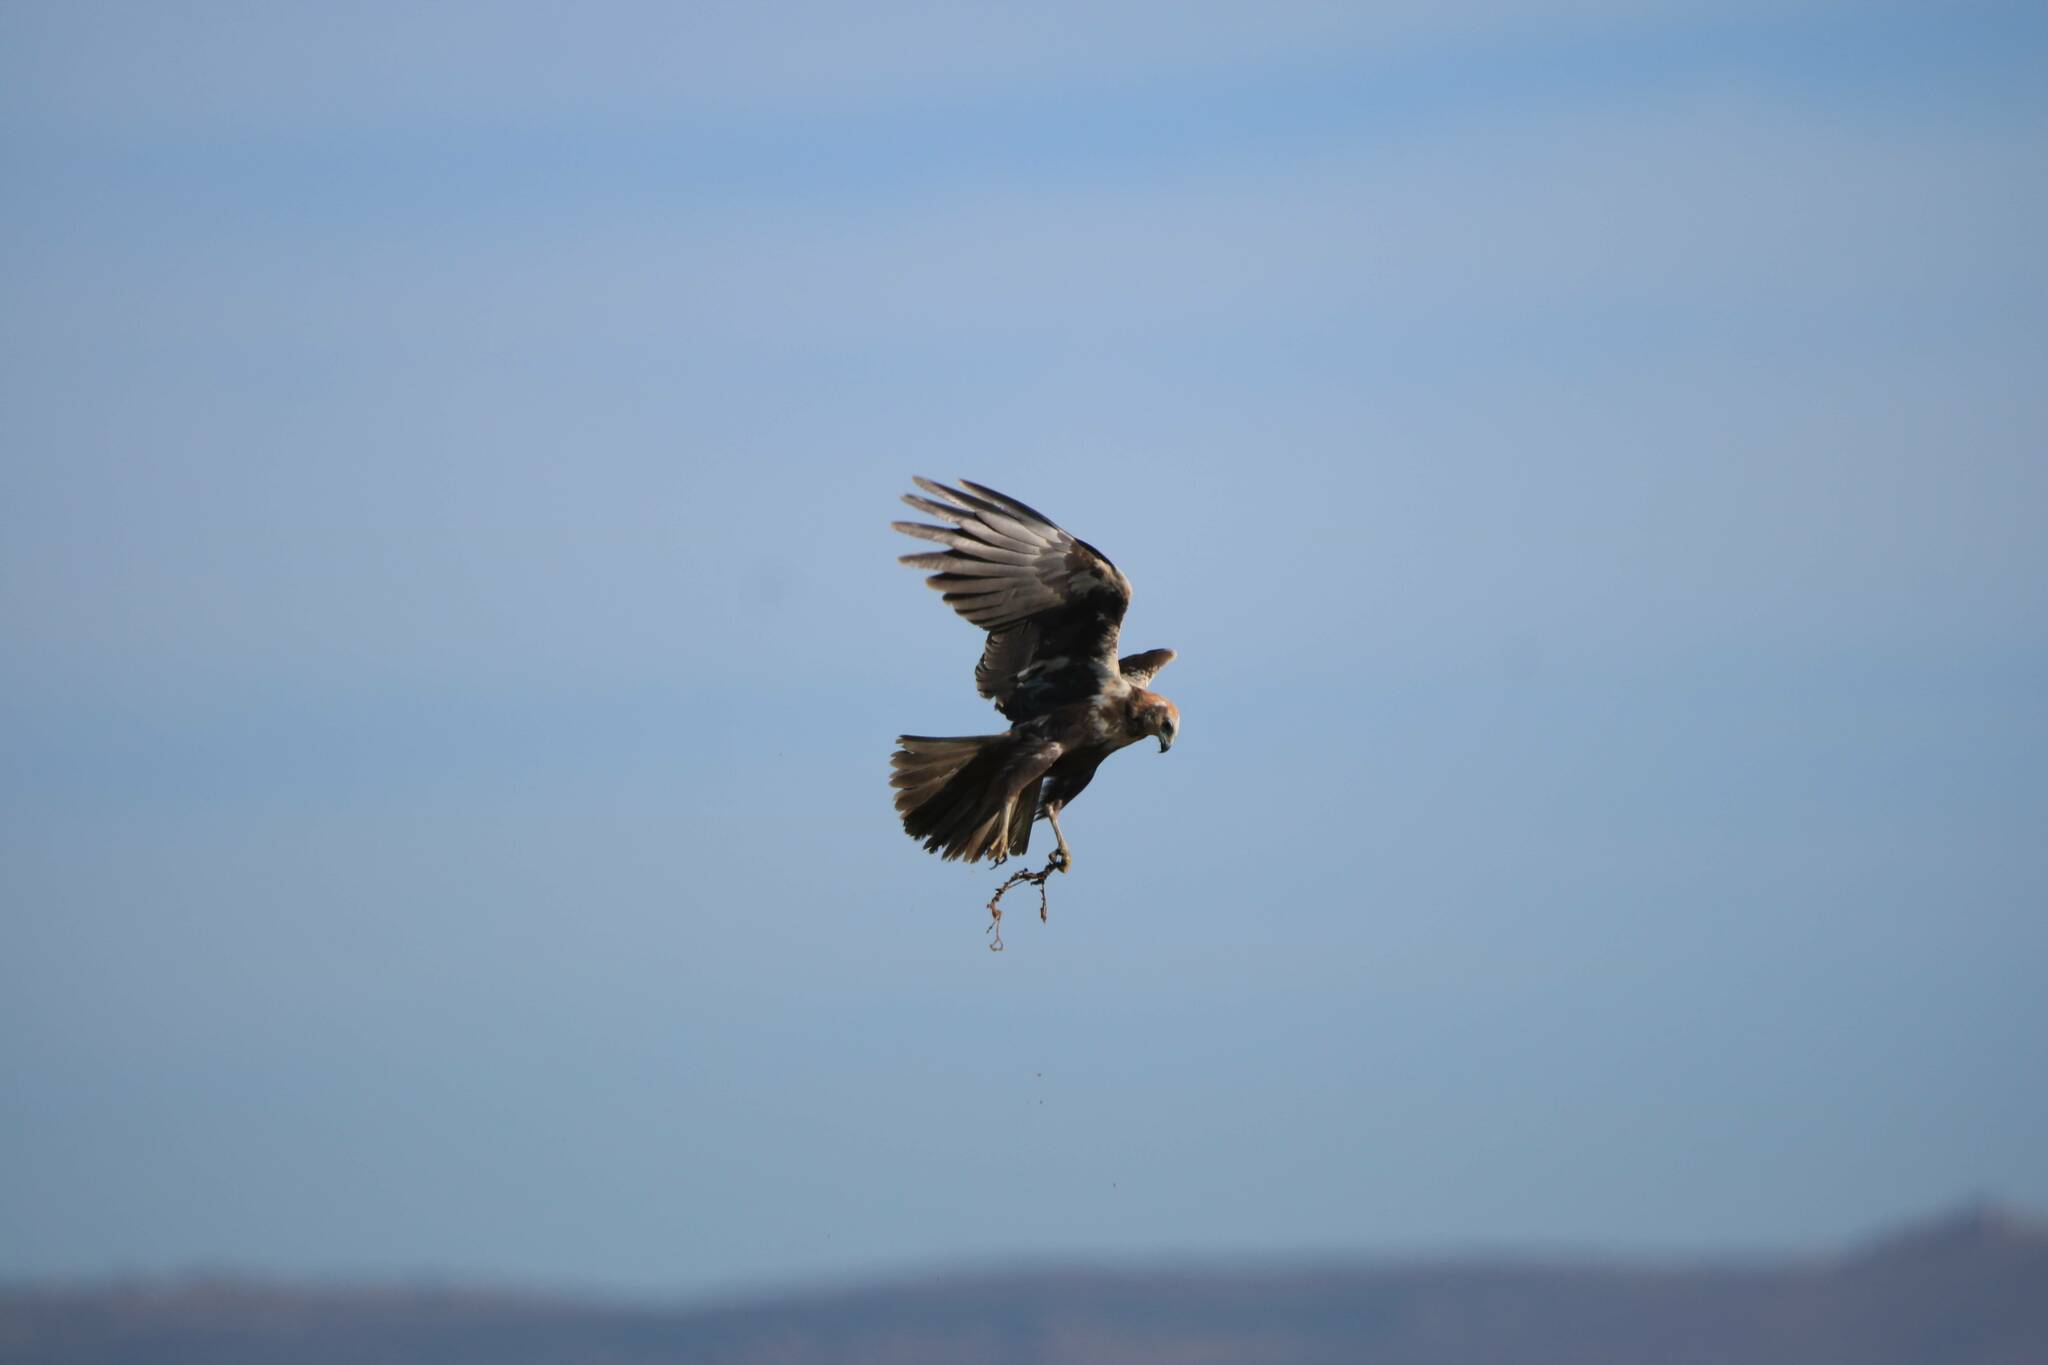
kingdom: Animalia
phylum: Chordata
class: Aves
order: Accipitriformes
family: Accipitridae
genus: Circus
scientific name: Circus aeruginosus
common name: Western marsh harrier
